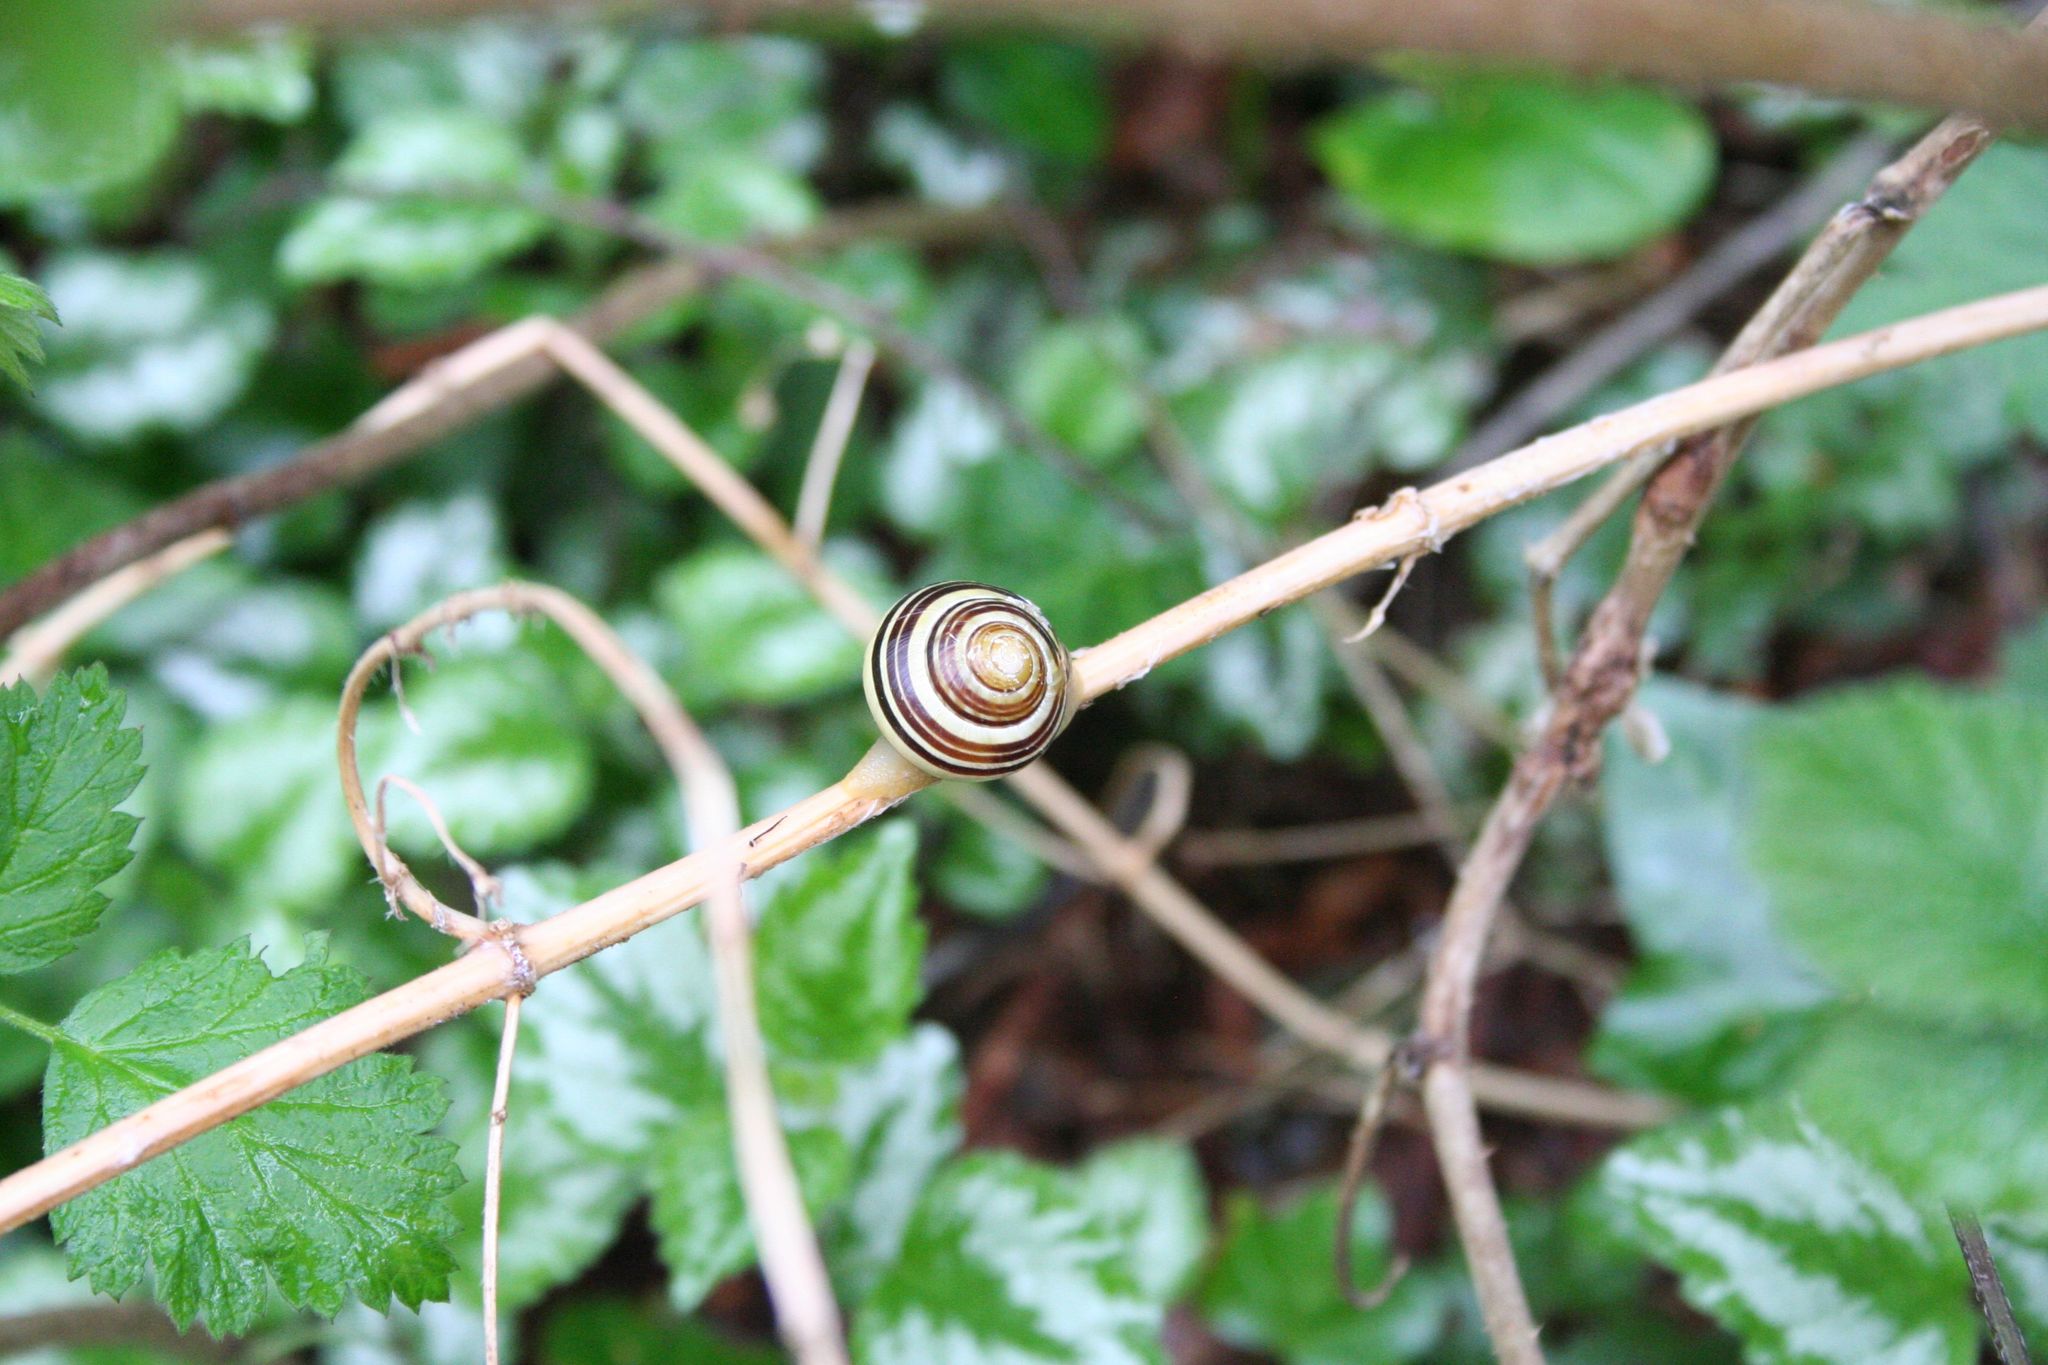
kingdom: Animalia
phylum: Mollusca
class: Gastropoda
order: Stylommatophora
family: Helicidae
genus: Cepaea
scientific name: Cepaea nemoralis
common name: Grovesnail
